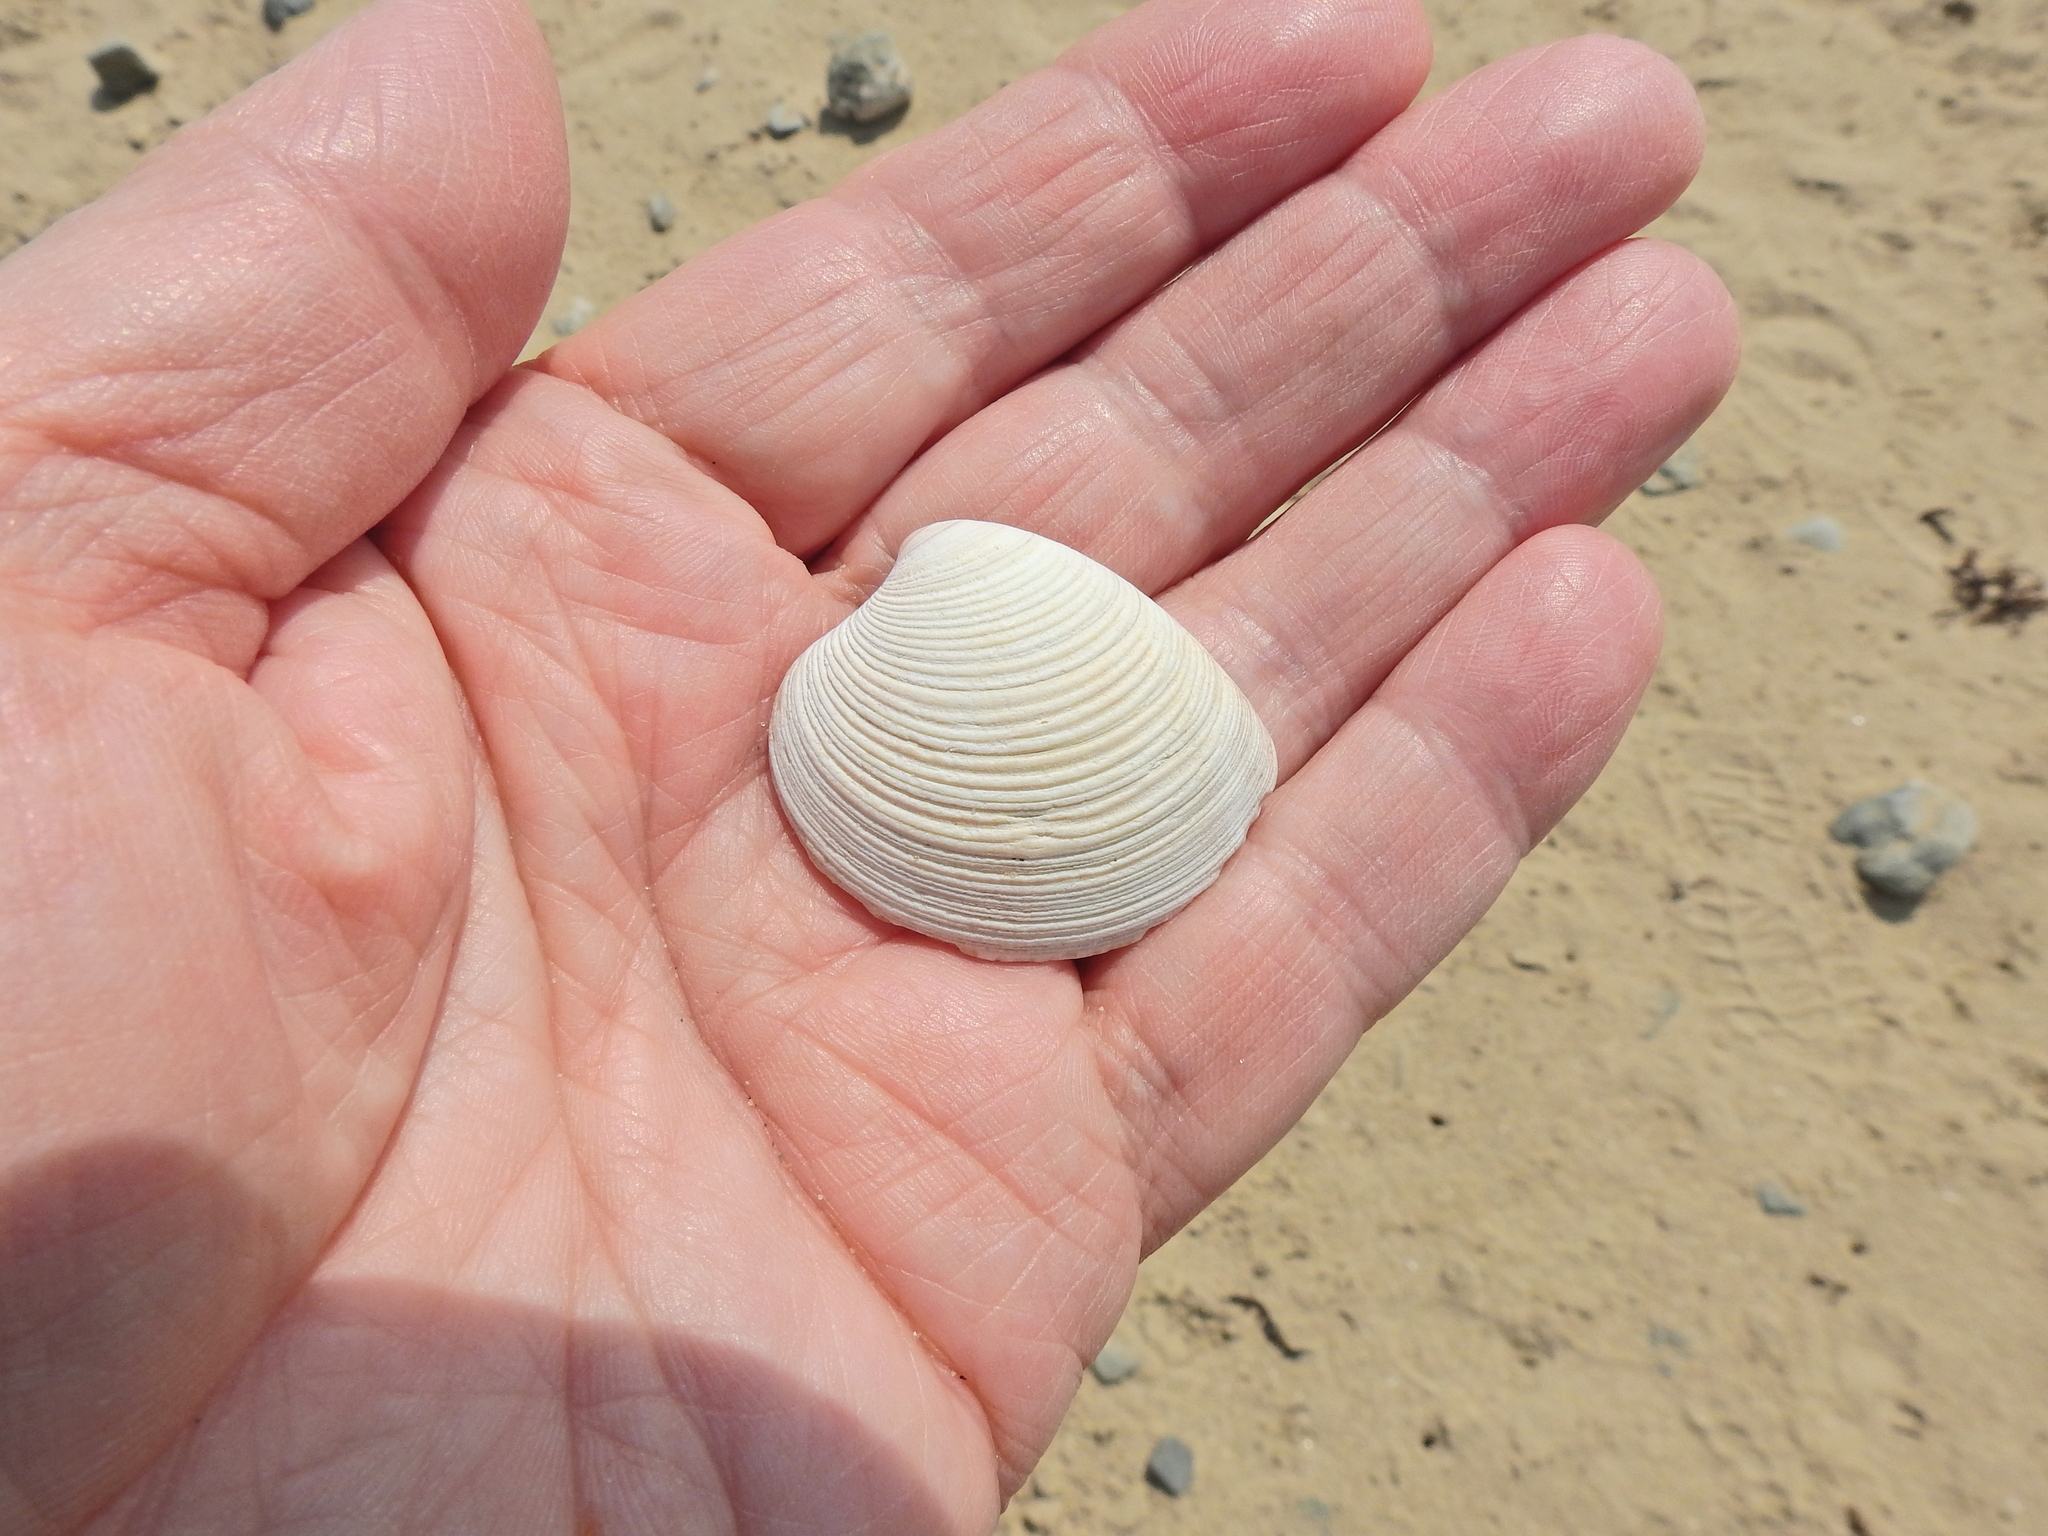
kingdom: Animalia
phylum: Mollusca
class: Bivalvia
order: Venerida
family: Veneridae
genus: Chamelea
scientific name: Chamelea striatula
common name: Striped venus
